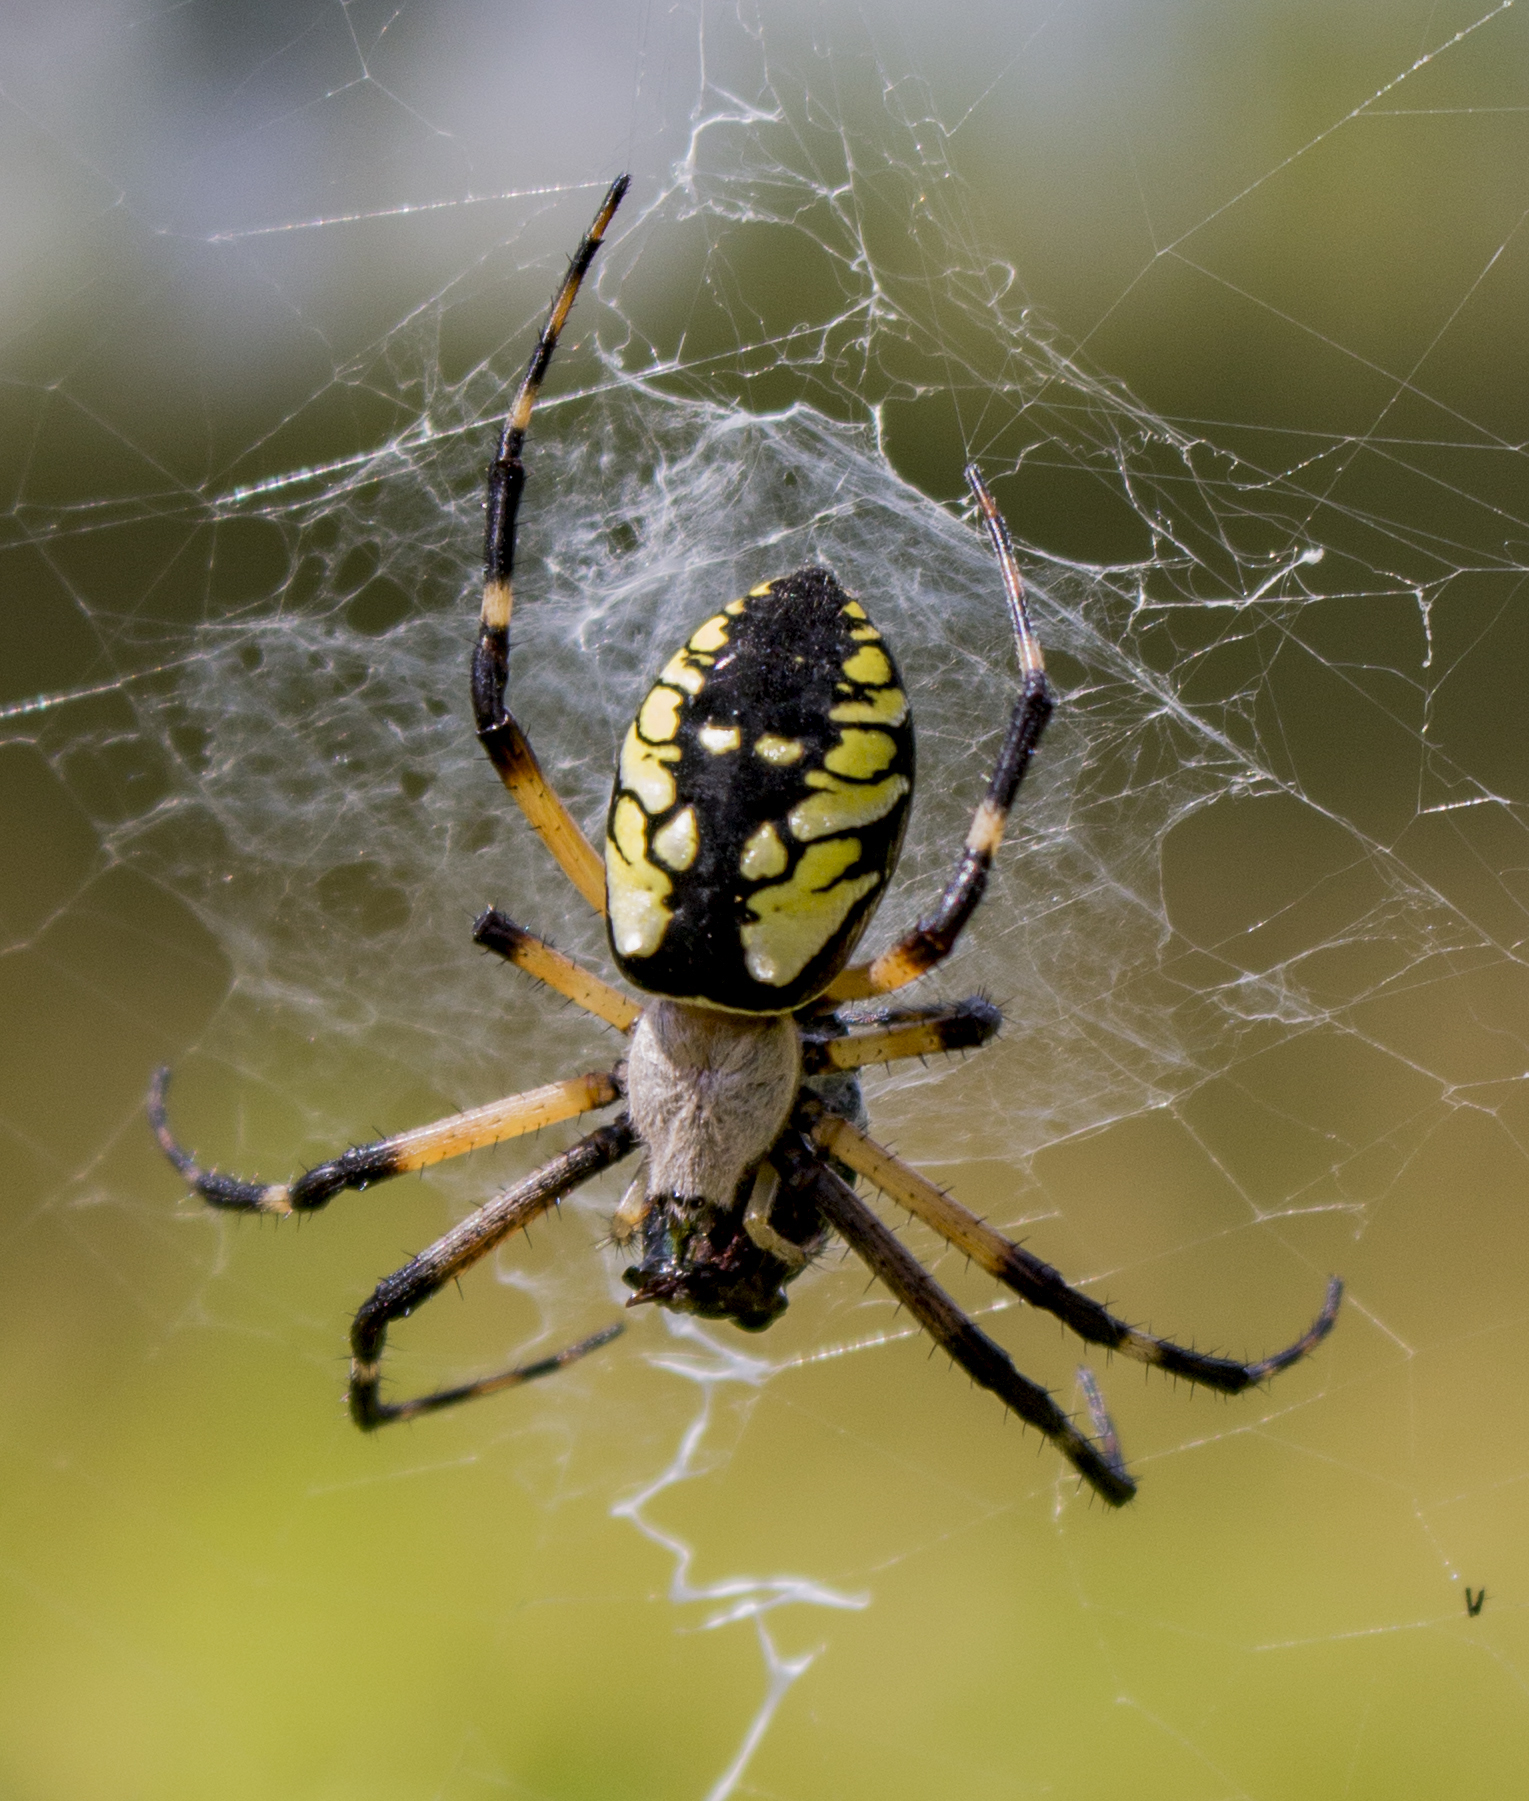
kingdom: Animalia
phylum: Arthropoda
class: Arachnida
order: Araneae
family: Araneidae
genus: Argiope
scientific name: Argiope aurantia
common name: Orb weavers
